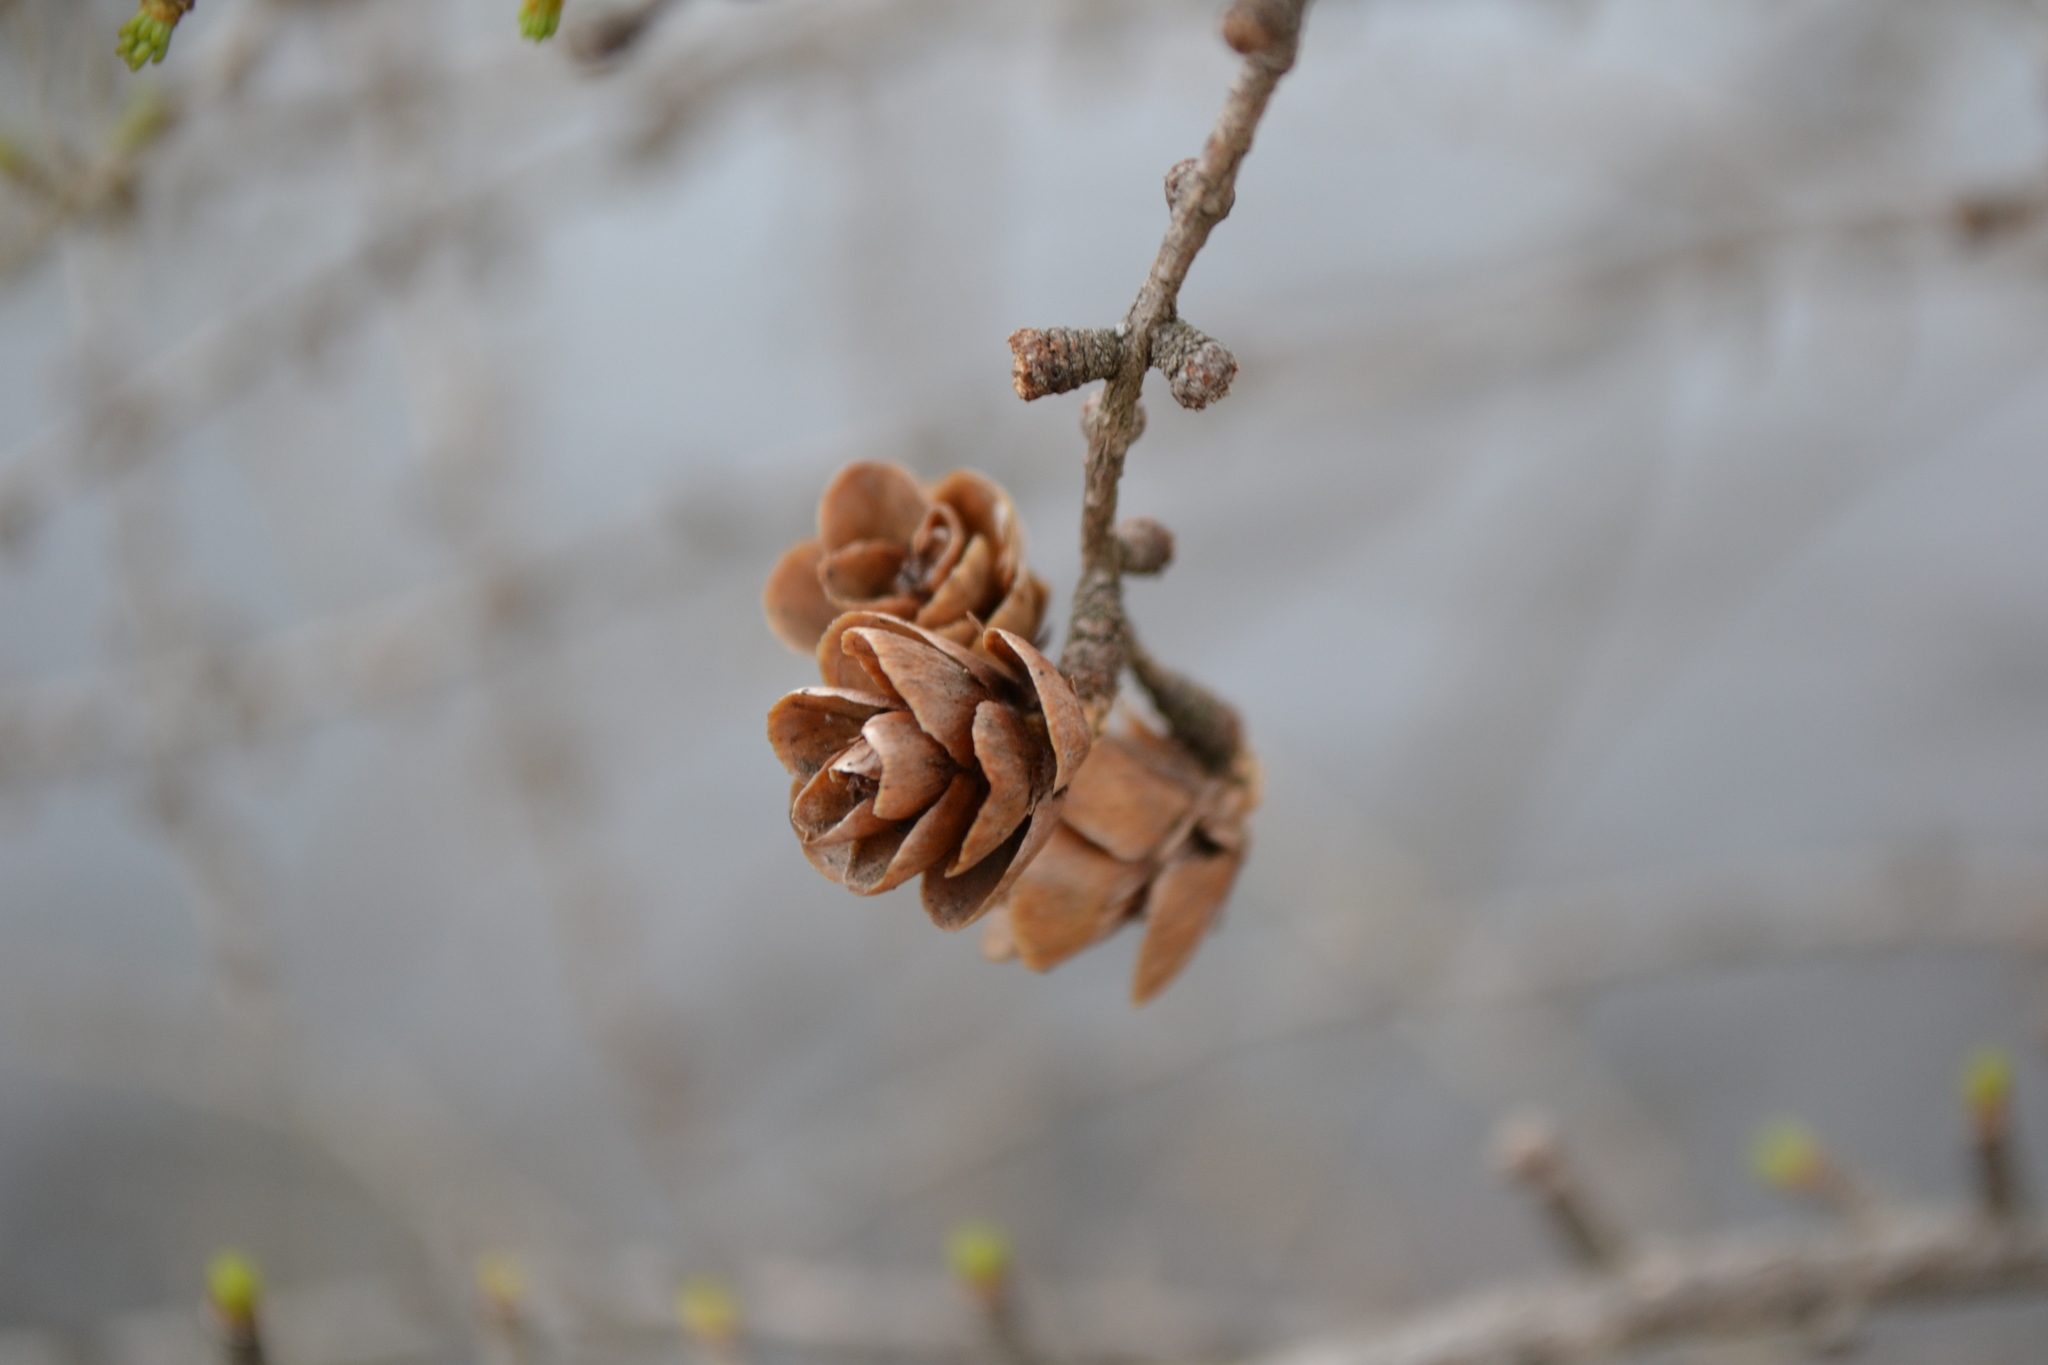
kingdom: Plantae
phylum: Tracheophyta
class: Pinopsida
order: Pinales
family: Pinaceae
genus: Larix
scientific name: Larix laricina
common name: American larch
